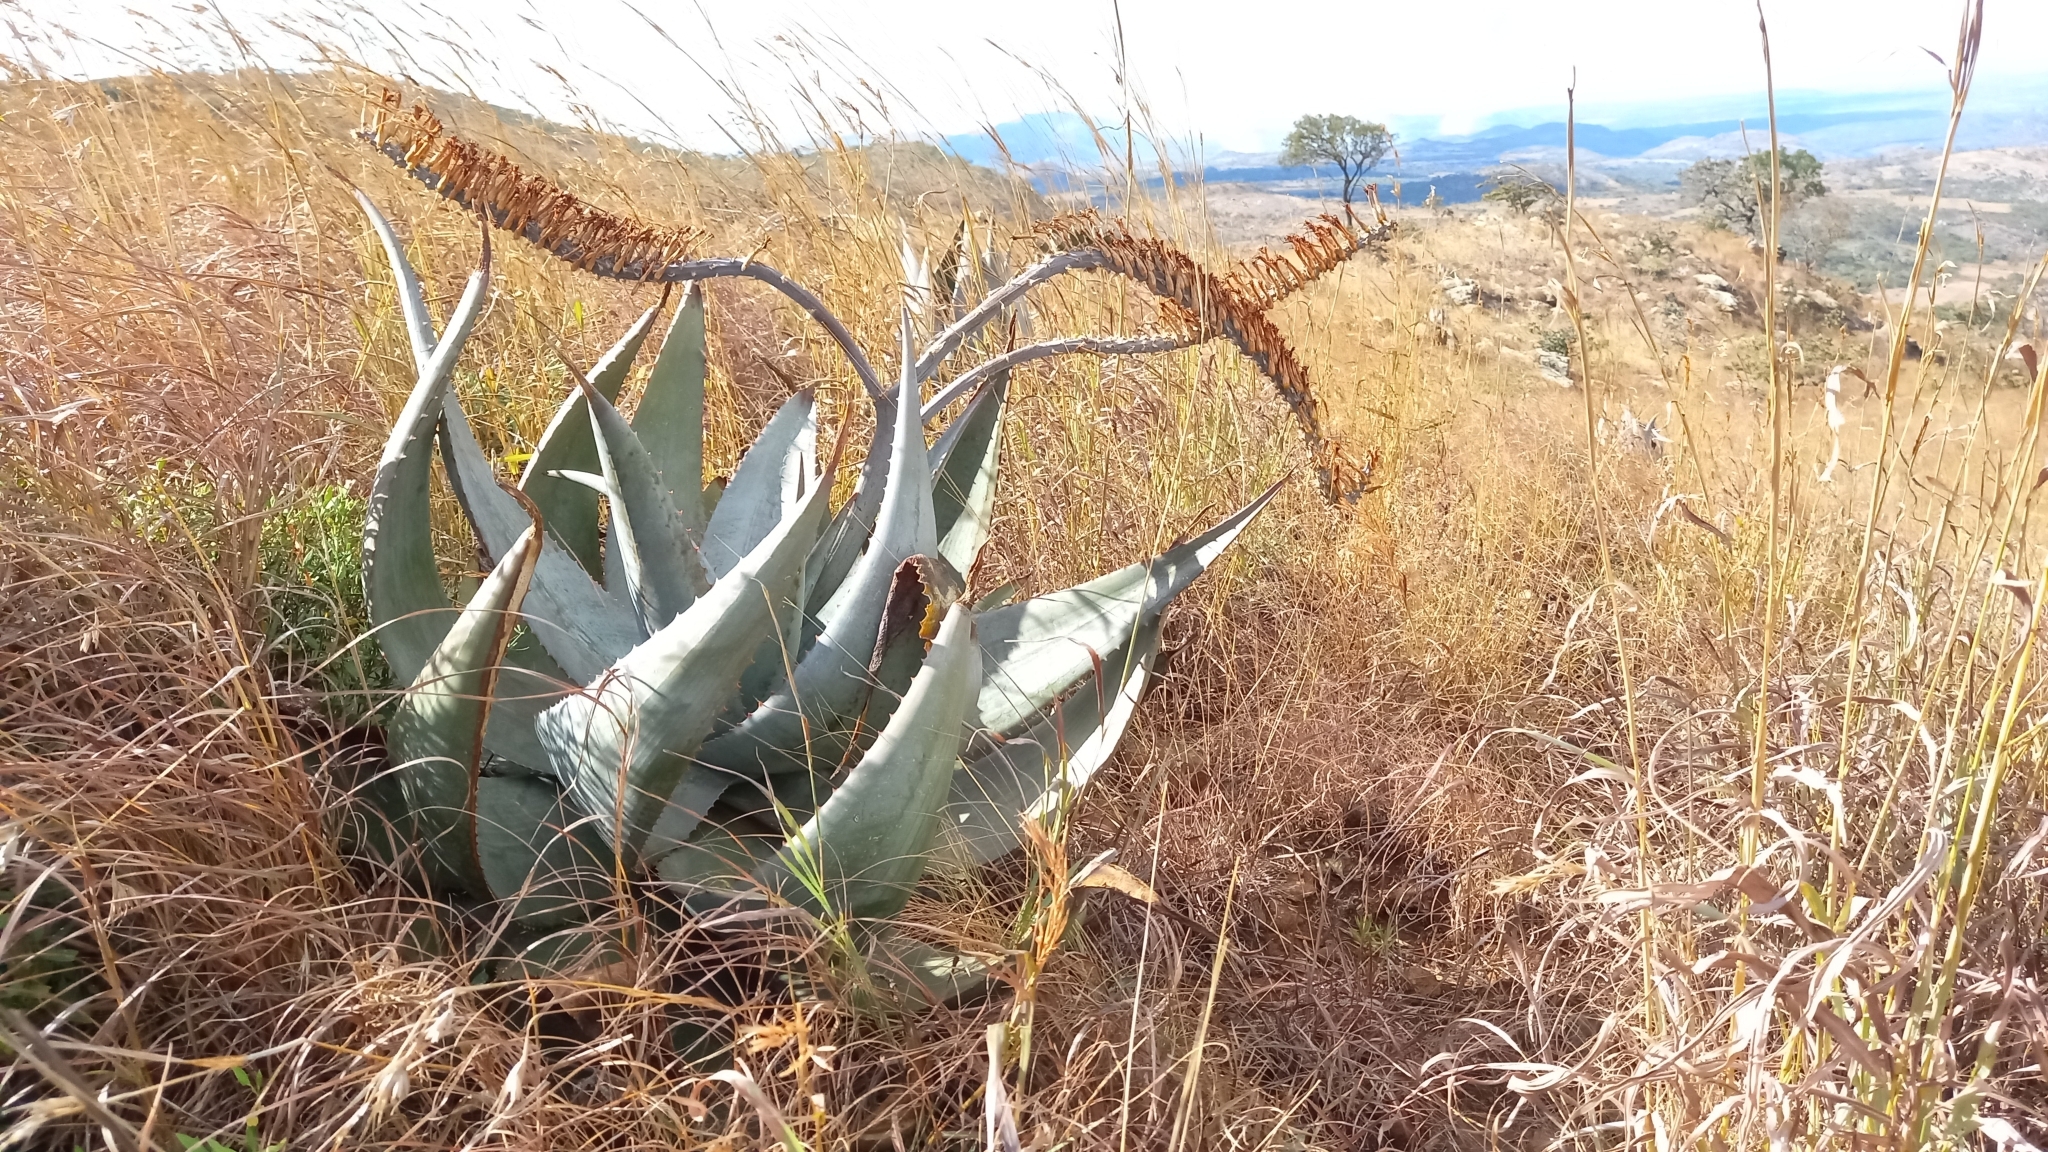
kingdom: Plantae
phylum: Tracheophyta
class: Liliopsida
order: Asparagales
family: Asphodelaceae
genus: Aloe
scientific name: Aloe ortholopha
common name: Dyke aloe
